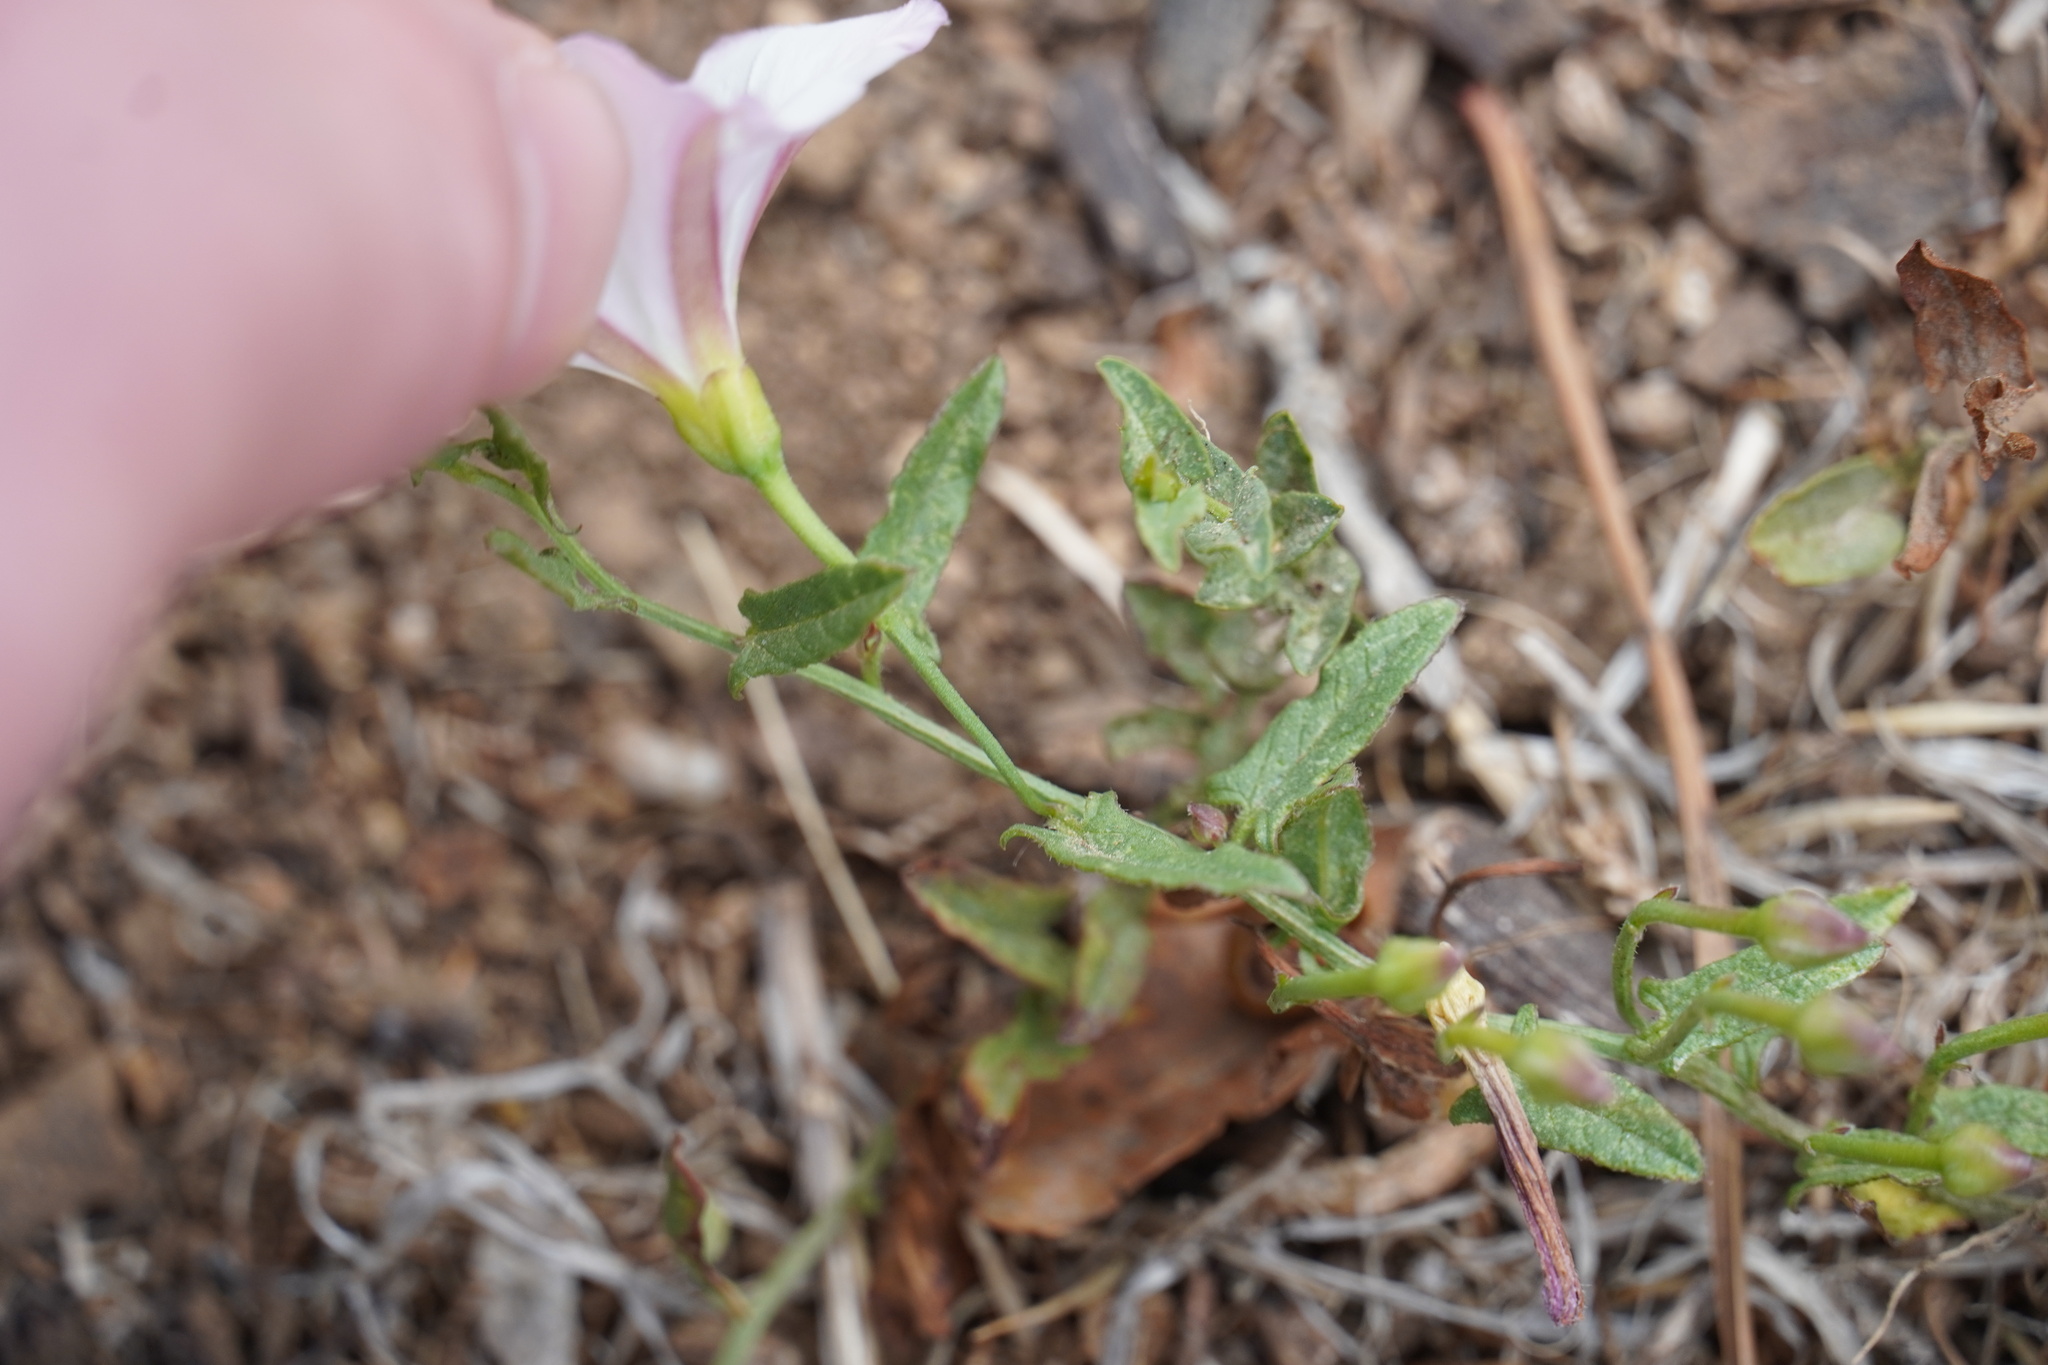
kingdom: Plantae
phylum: Tracheophyta
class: Magnoliopsida
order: Solanales
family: Convolvulaceae
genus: Convolvulus
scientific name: Convolvulus arvensis
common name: Field bindweed
